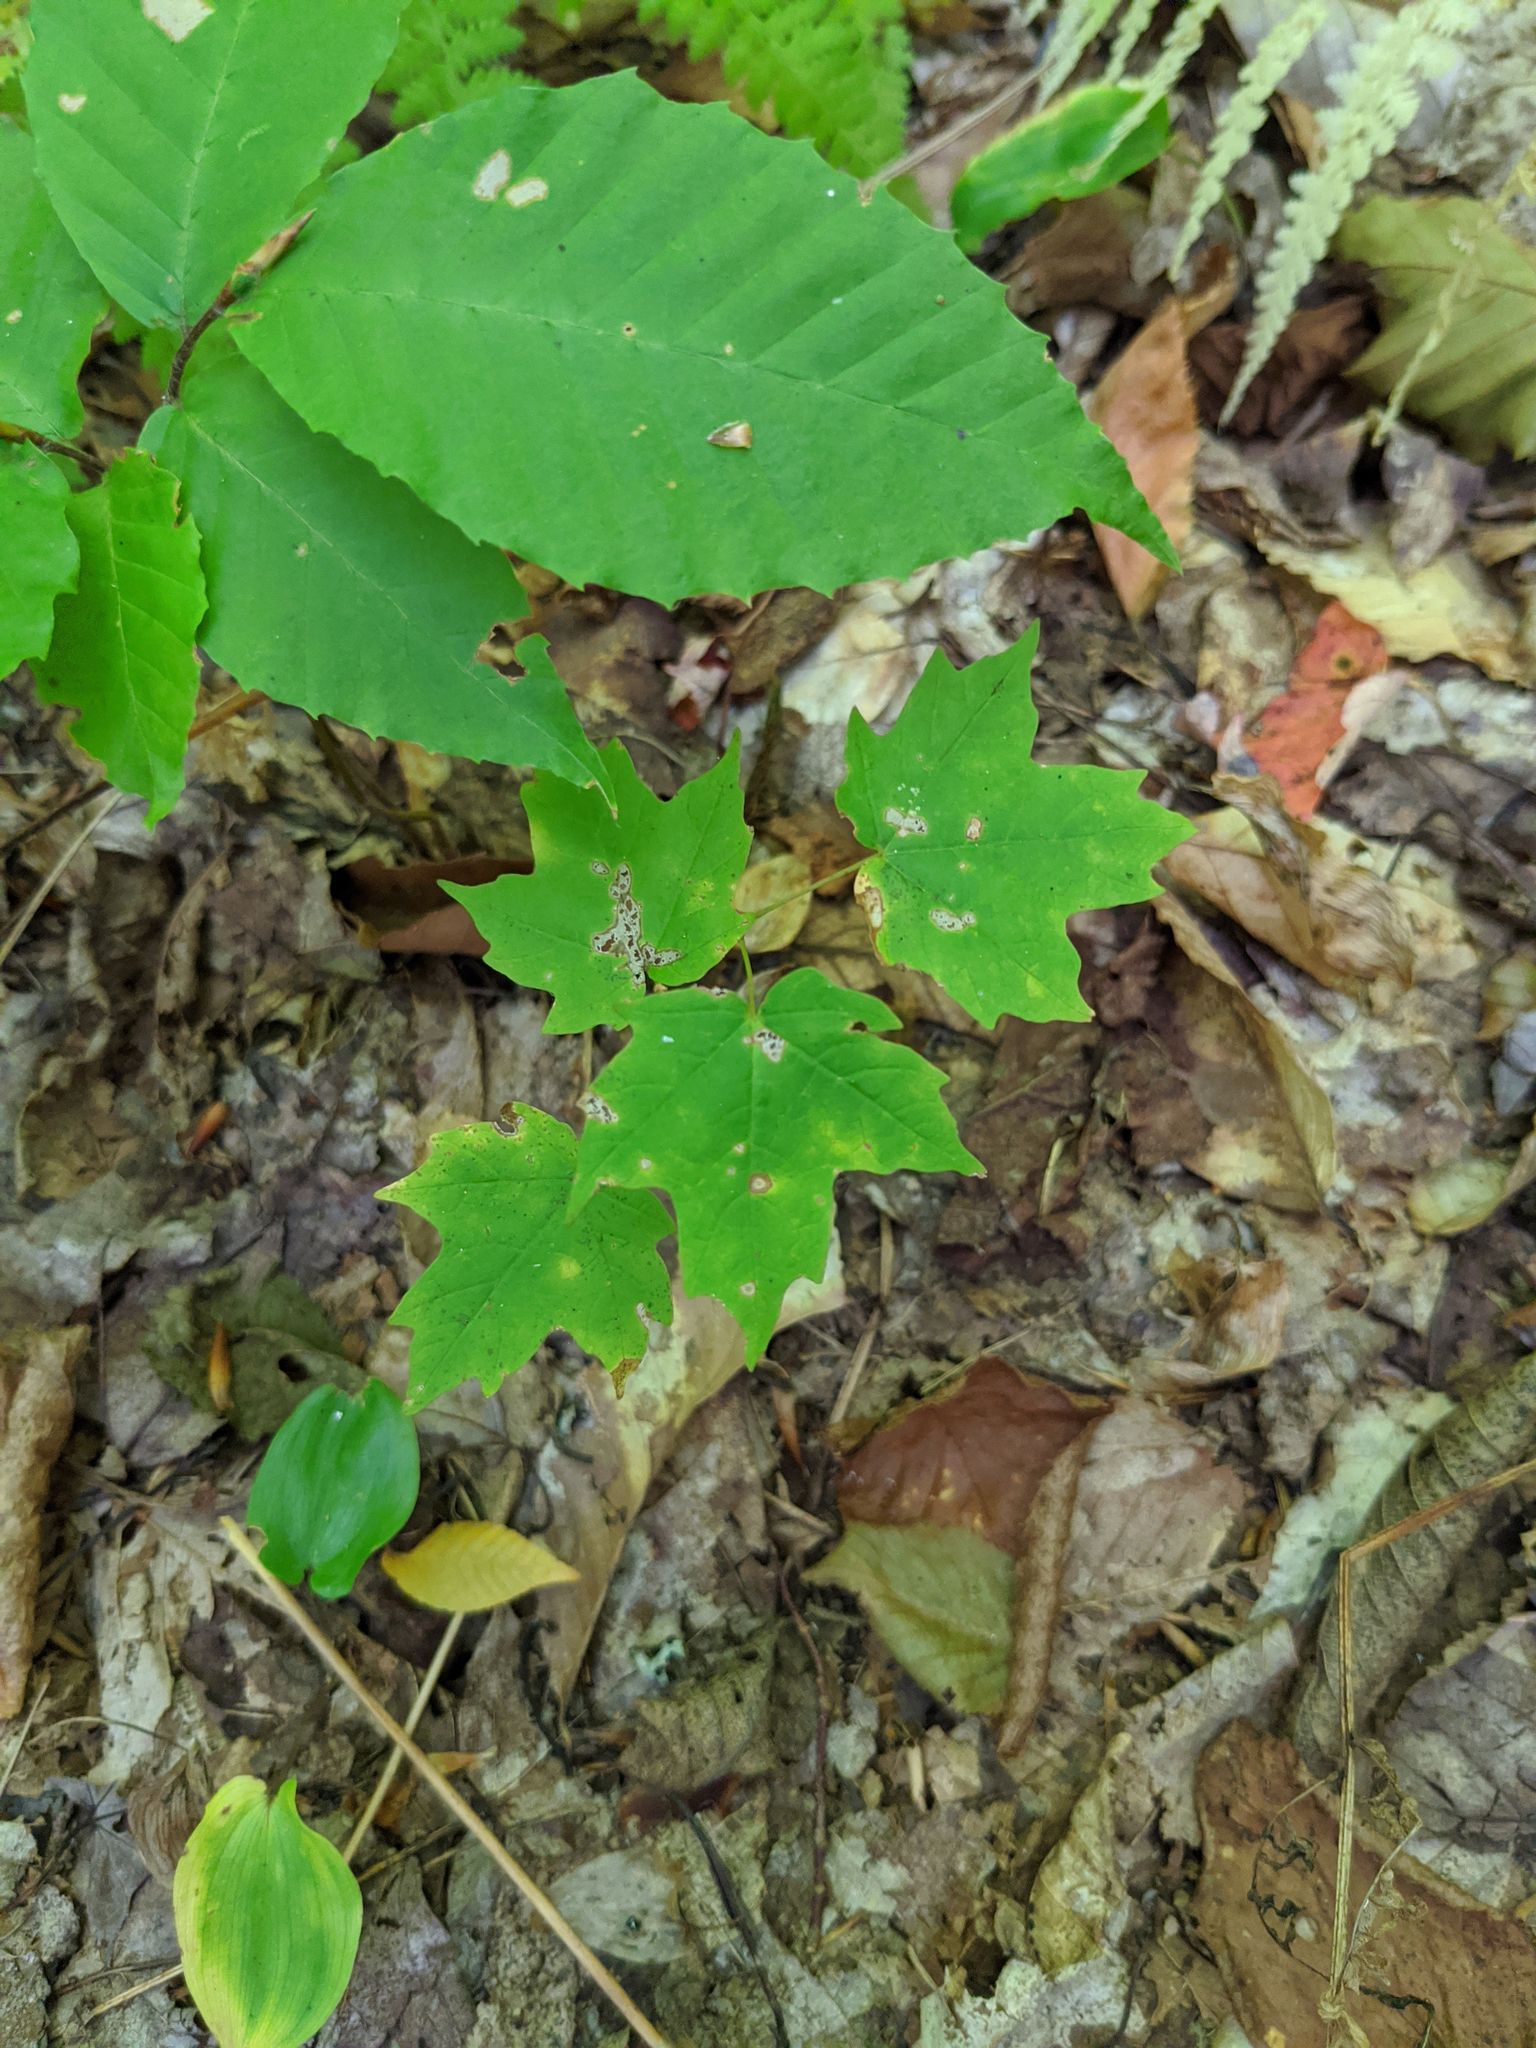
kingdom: Plantae
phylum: Tracheophyta
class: Magnoliopsida
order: Fagales
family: Fagaceae
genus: Fagus
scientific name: Fagus grandifolia
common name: American beech
